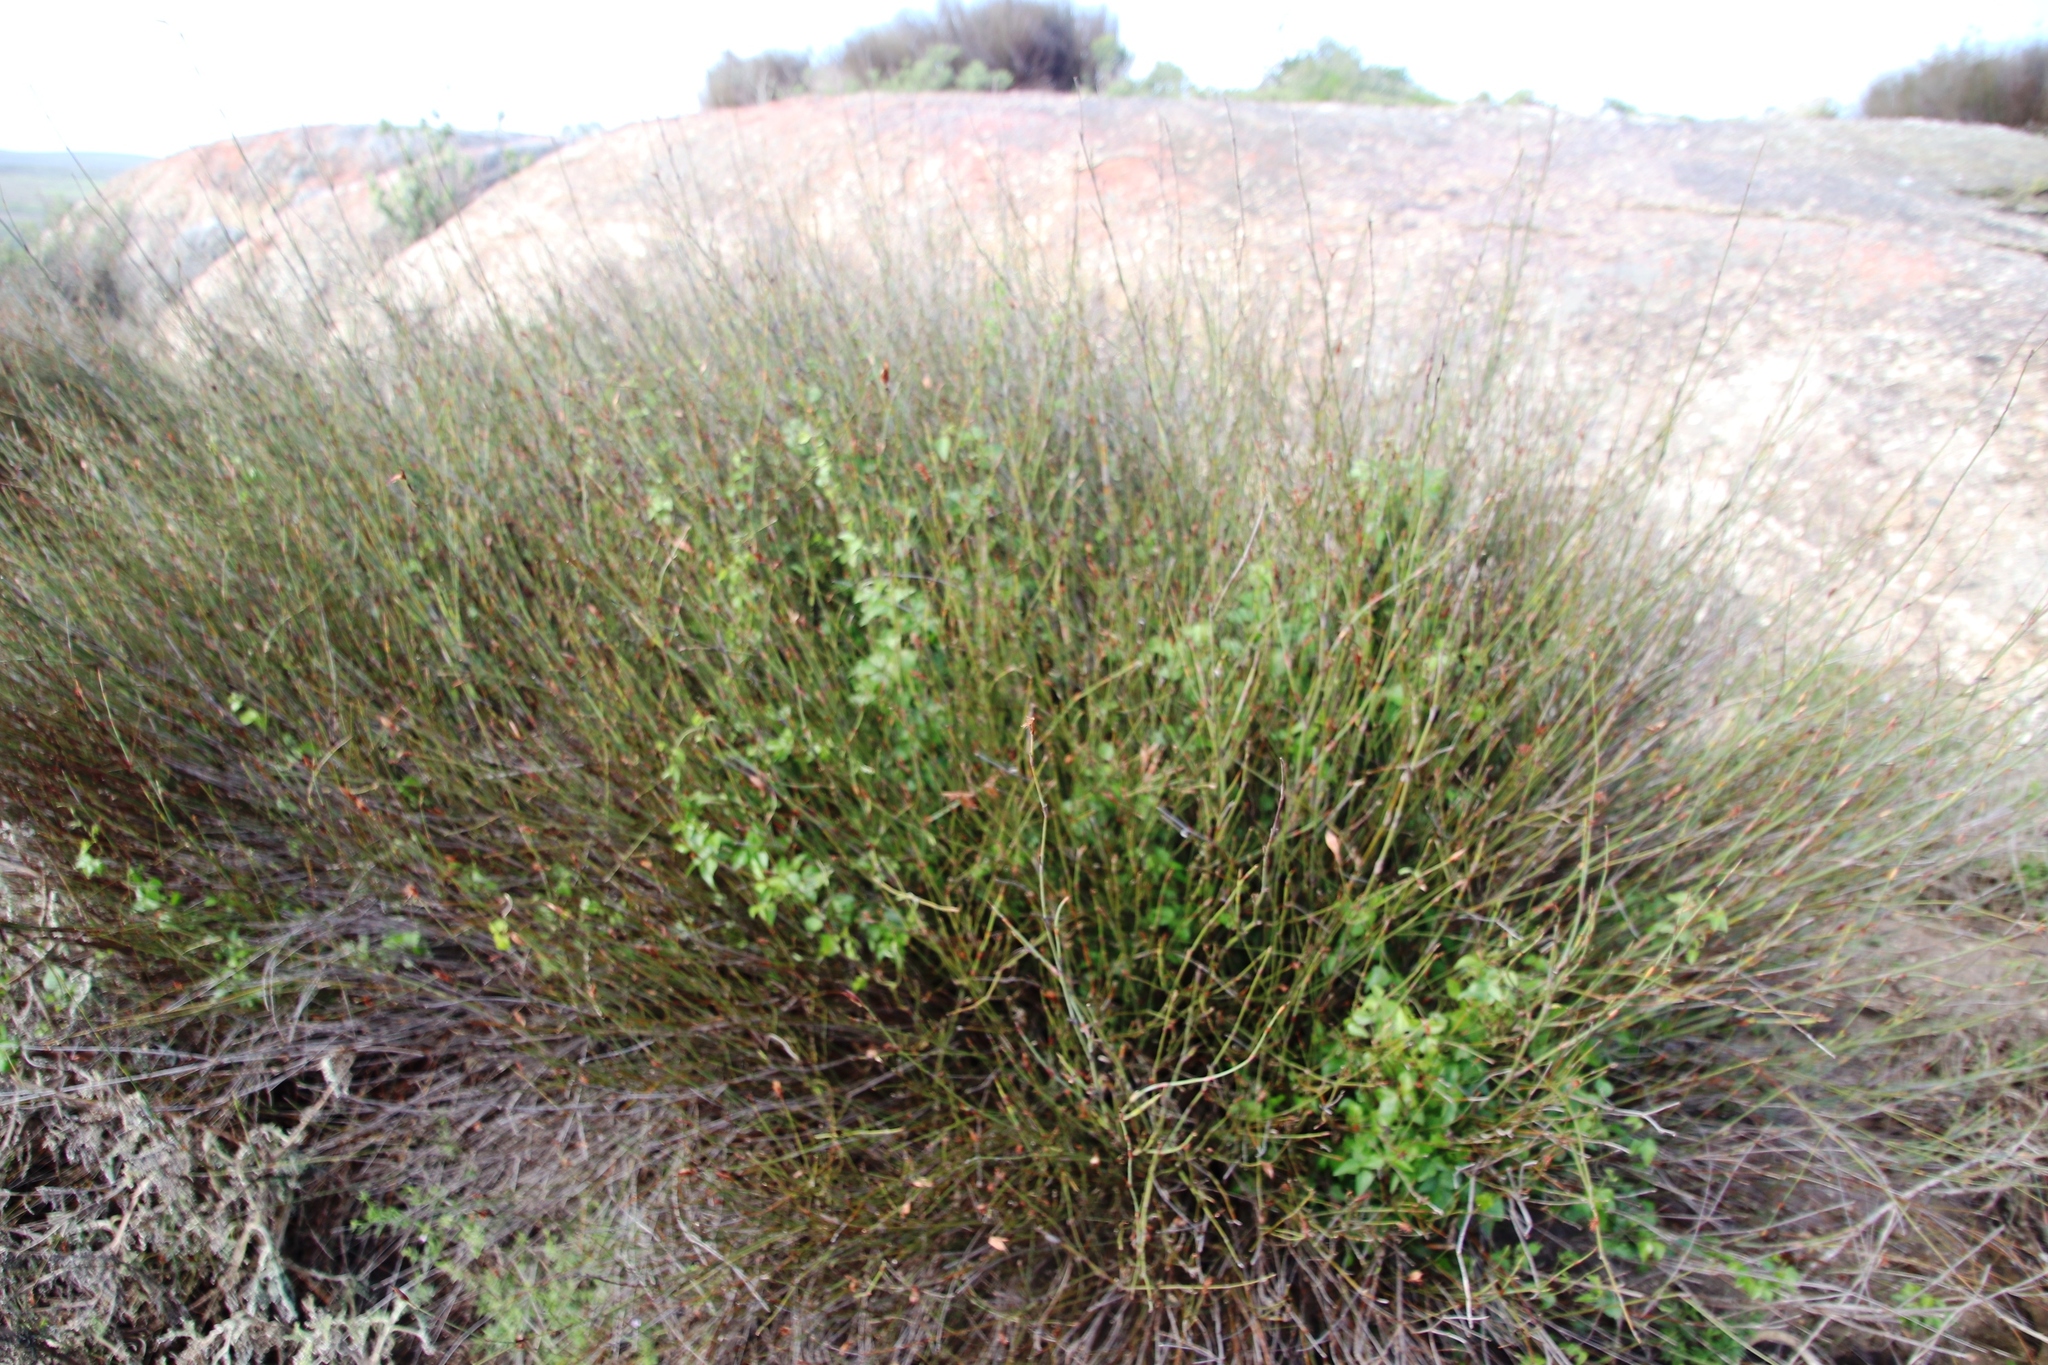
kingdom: Plantae
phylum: Tracheophyta
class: Liliopsida
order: Poales
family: Restionaceae
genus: Willdenowia
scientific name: Willdenowia incurvata
